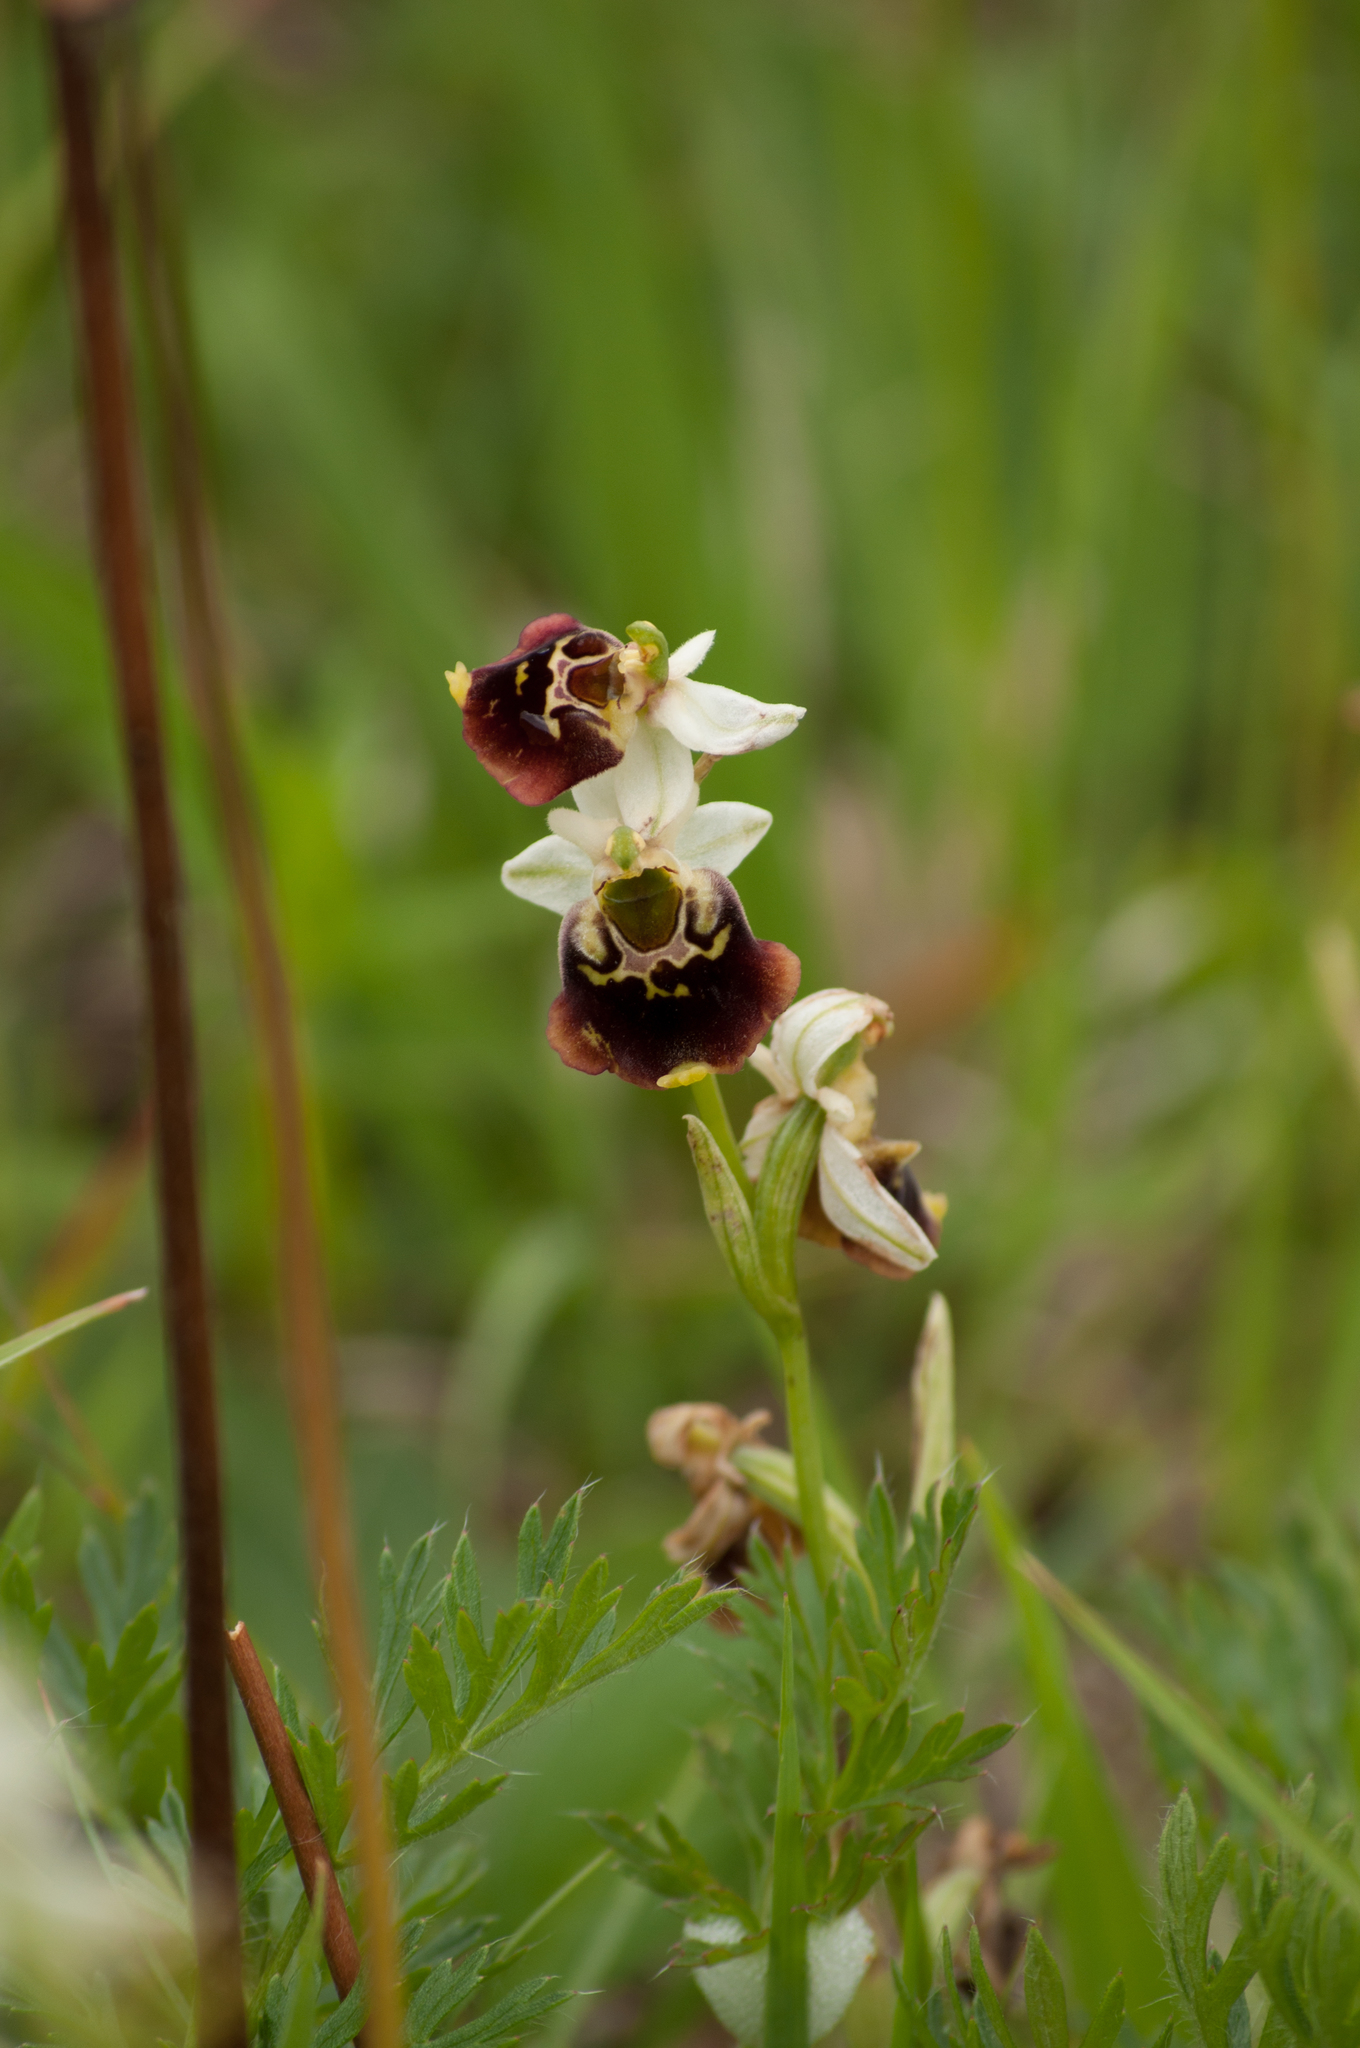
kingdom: Plantae
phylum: Tracheophyta
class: Liliopsida
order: Asparagales
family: Orchidaceae
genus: Ophrys
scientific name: Ophrys holosericea
